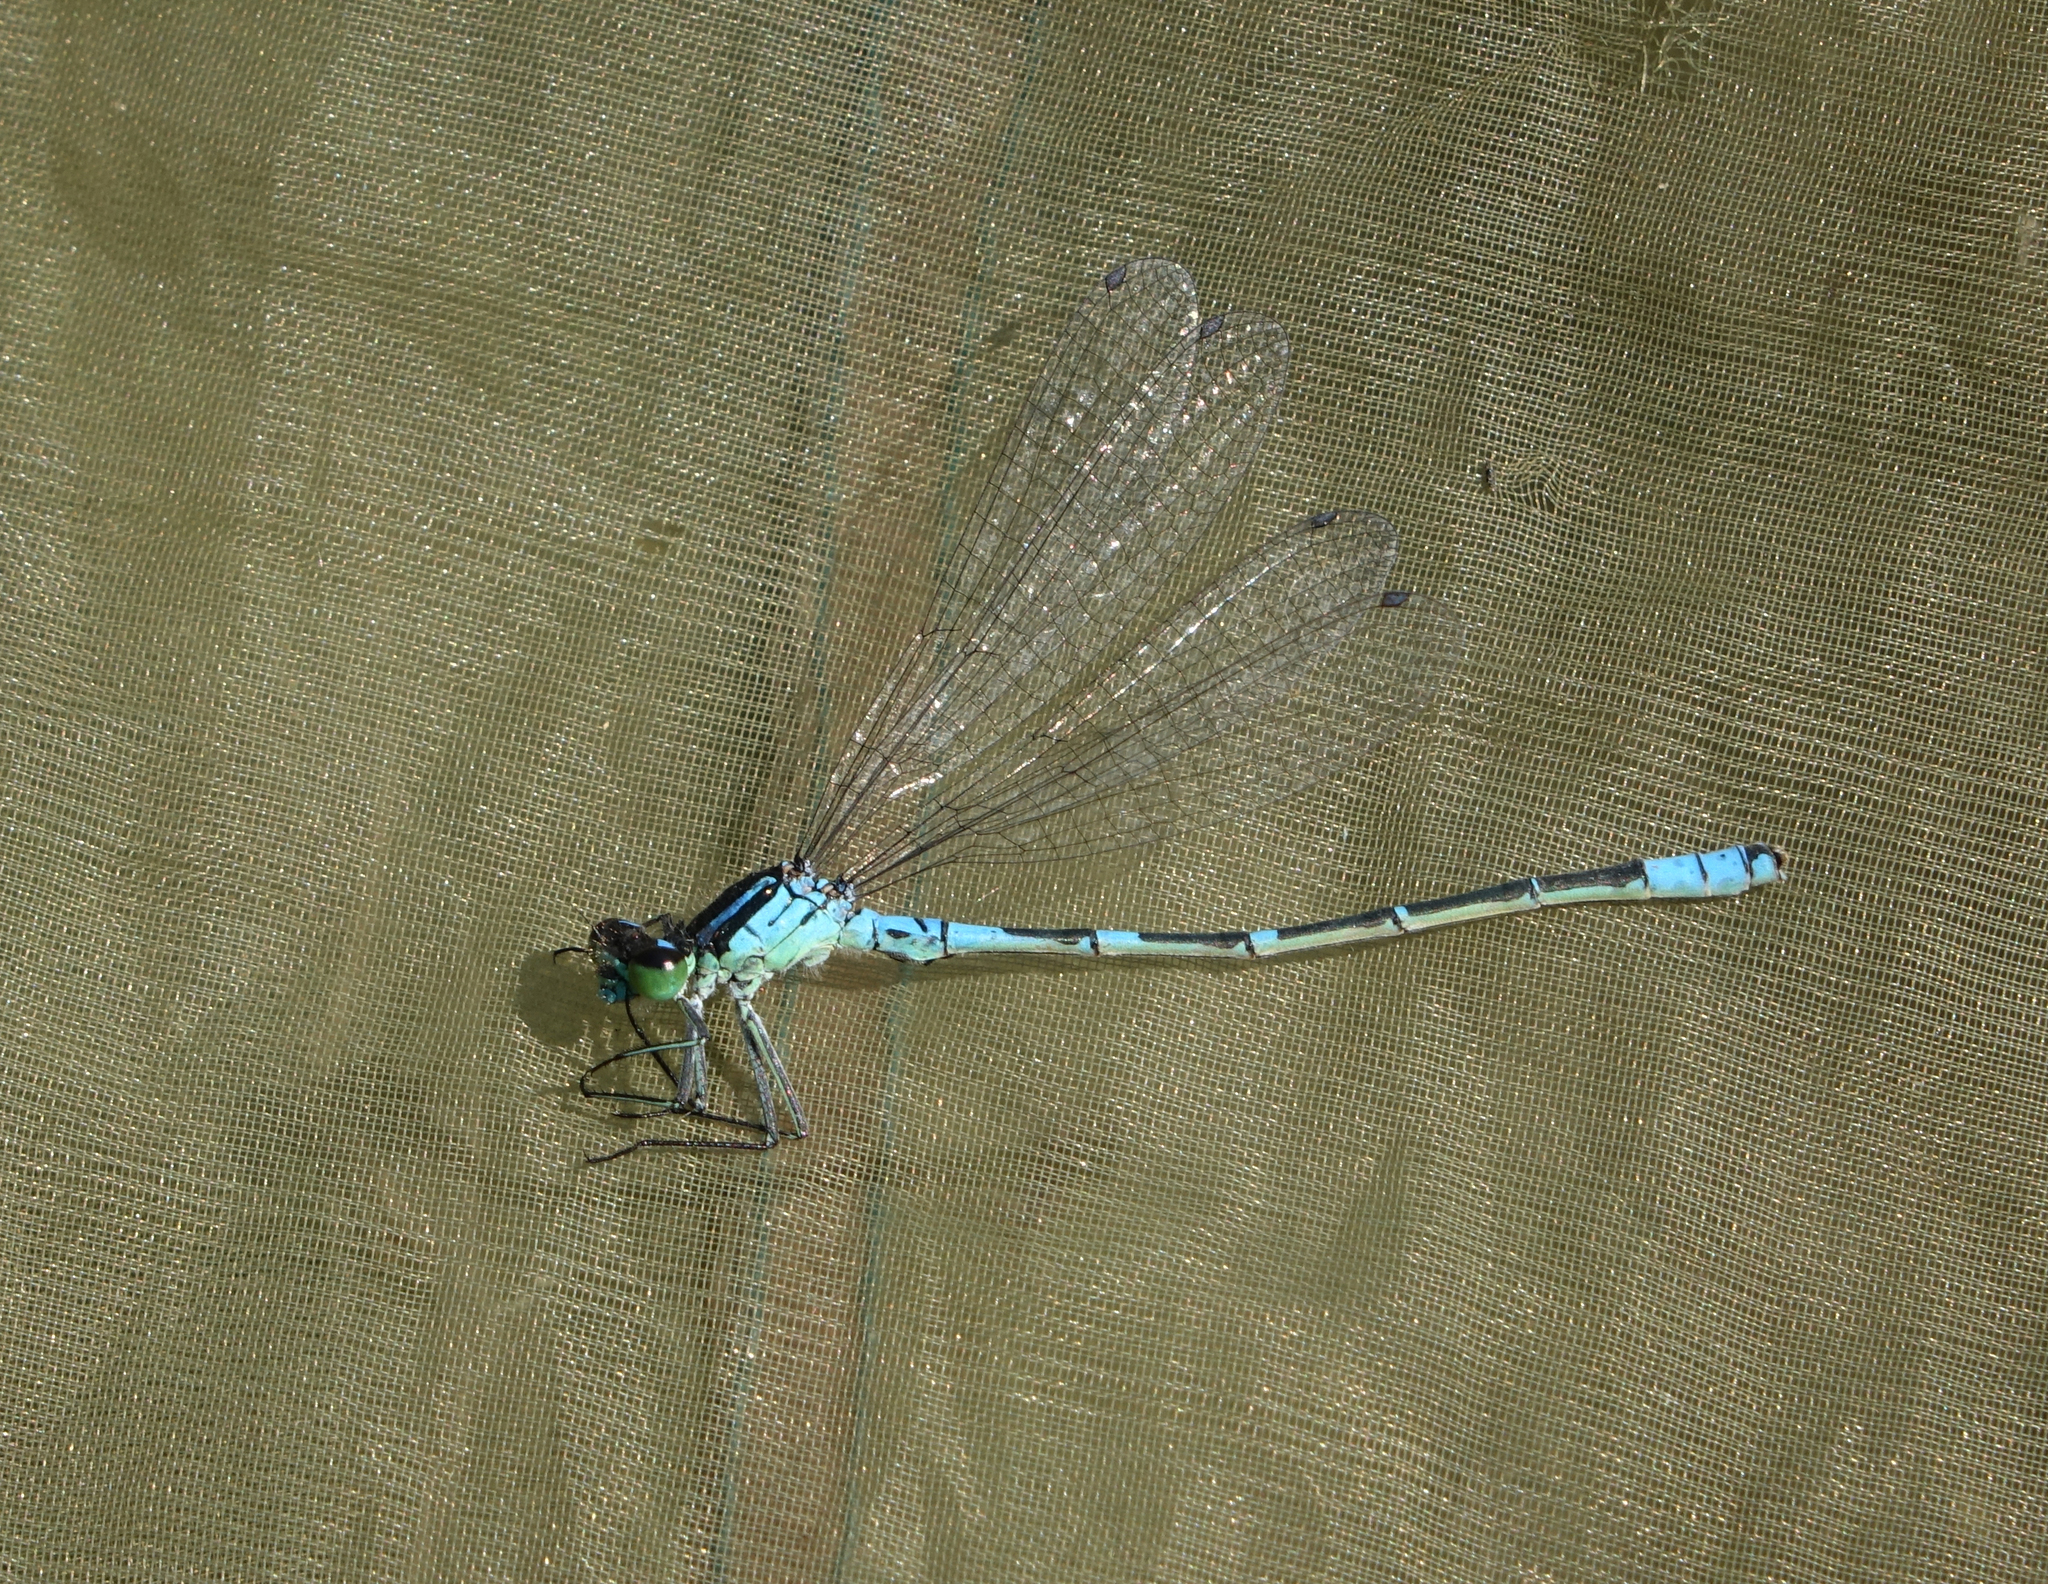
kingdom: Animalia
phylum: Arthropoda
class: Insecta
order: Odonata
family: Coenagrionidae
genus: Coenagrion
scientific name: Coenagrion lunulatum
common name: Irish damselfly
